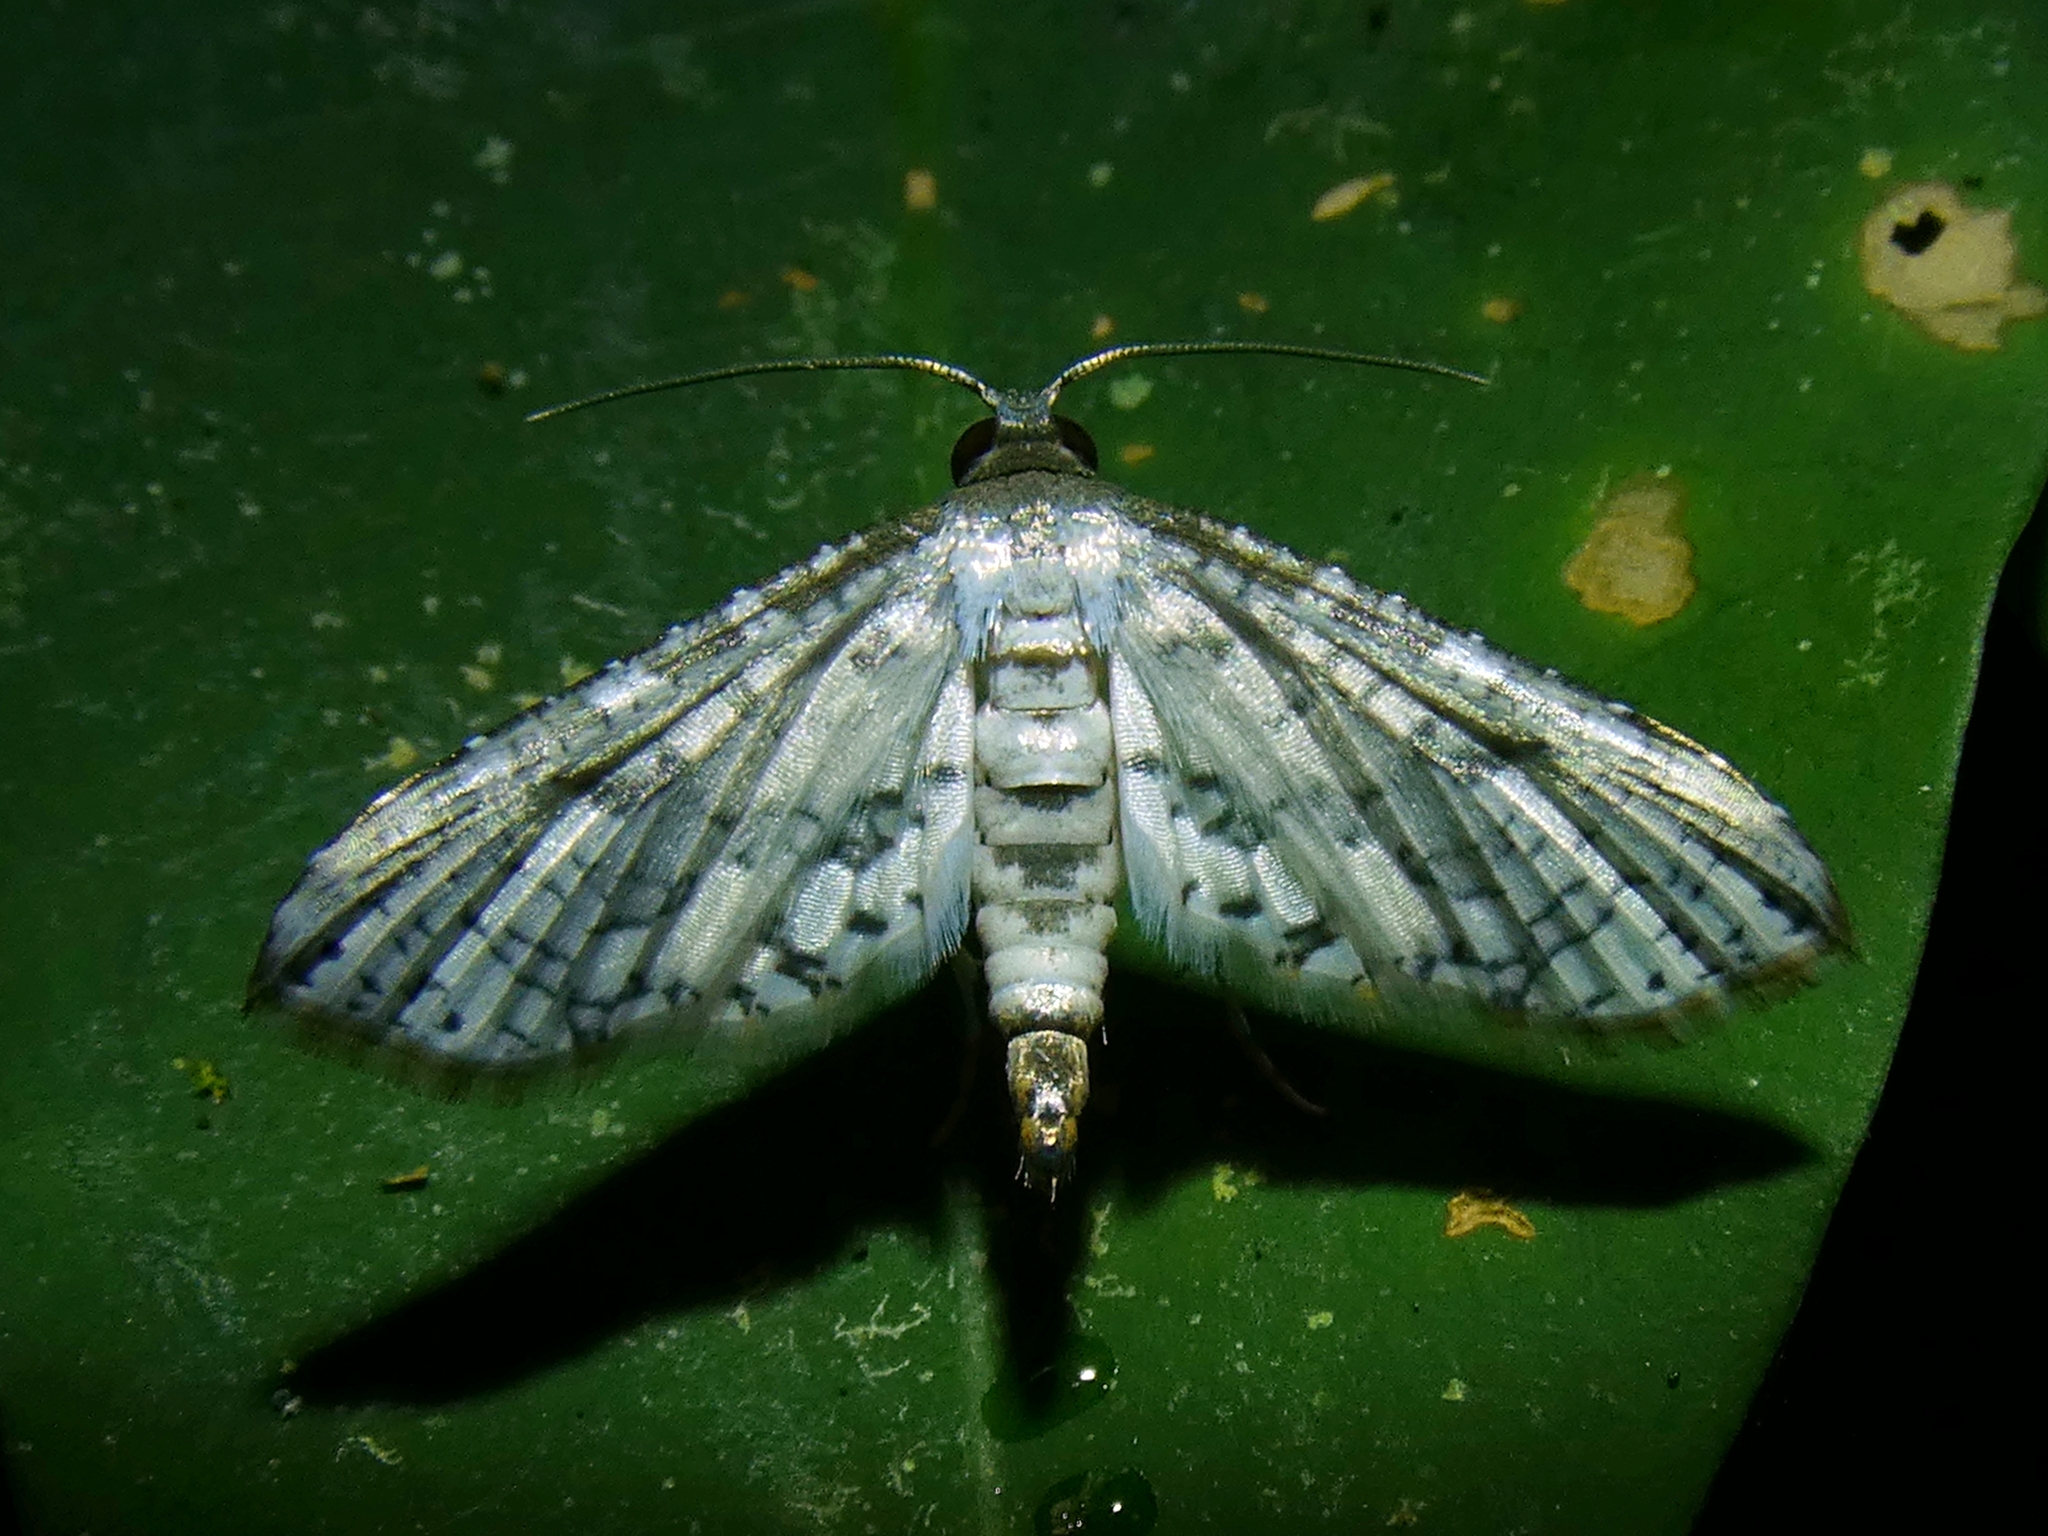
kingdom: Animalia
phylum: Arthropoda
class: Insecta
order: Lepidoptera
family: Thyrididae
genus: Calindoea
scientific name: Calindoea polygraphalis
